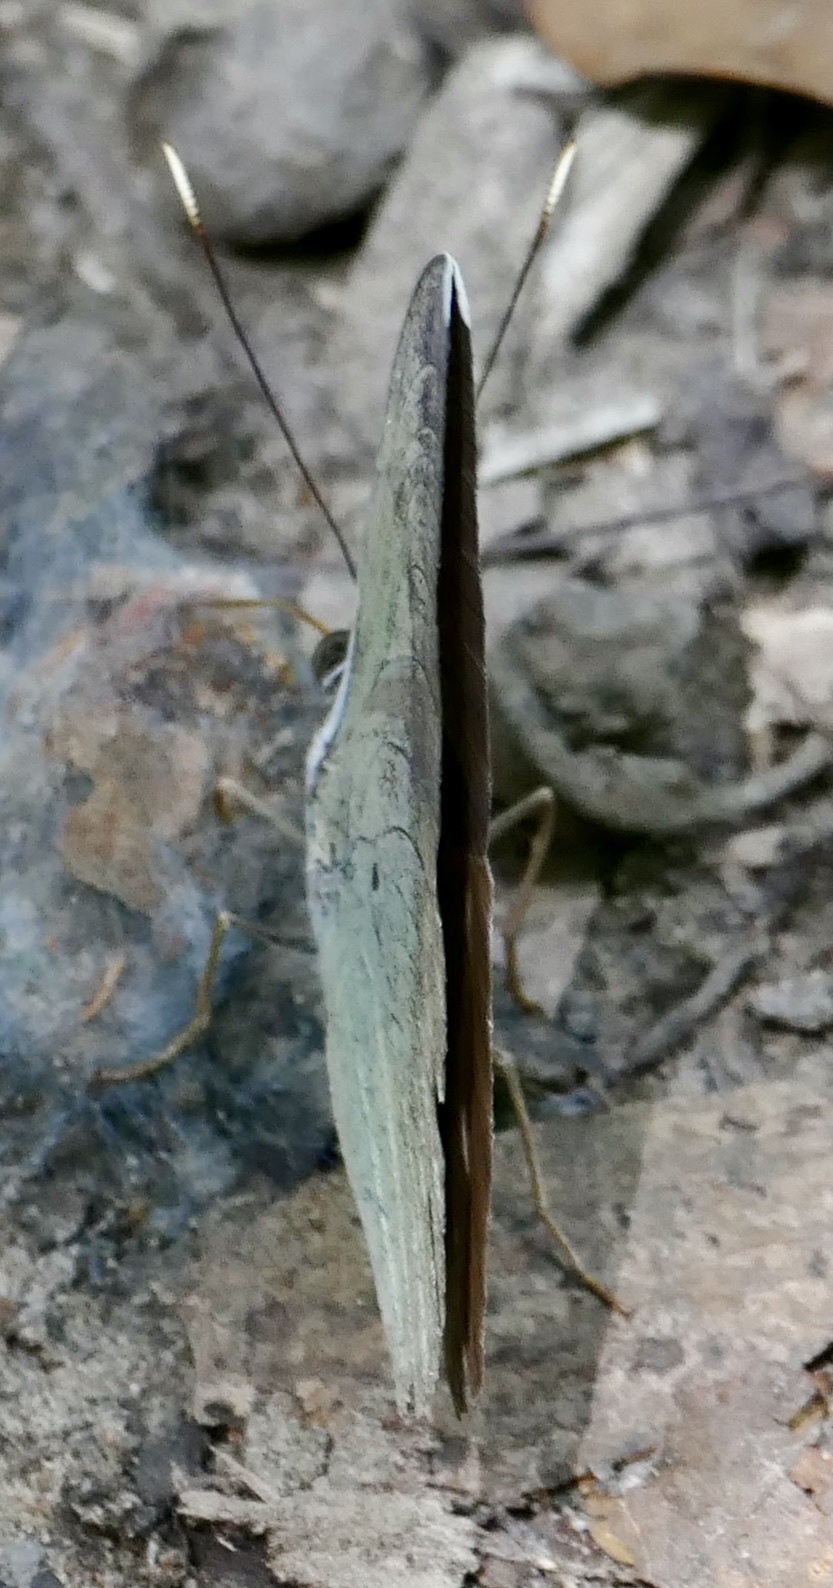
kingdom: Animalia
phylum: Arthropoda
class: Insecta
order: Lepidoptera
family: Nymphalidae
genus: Euphaedra
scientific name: Euphaedra harpalyce
